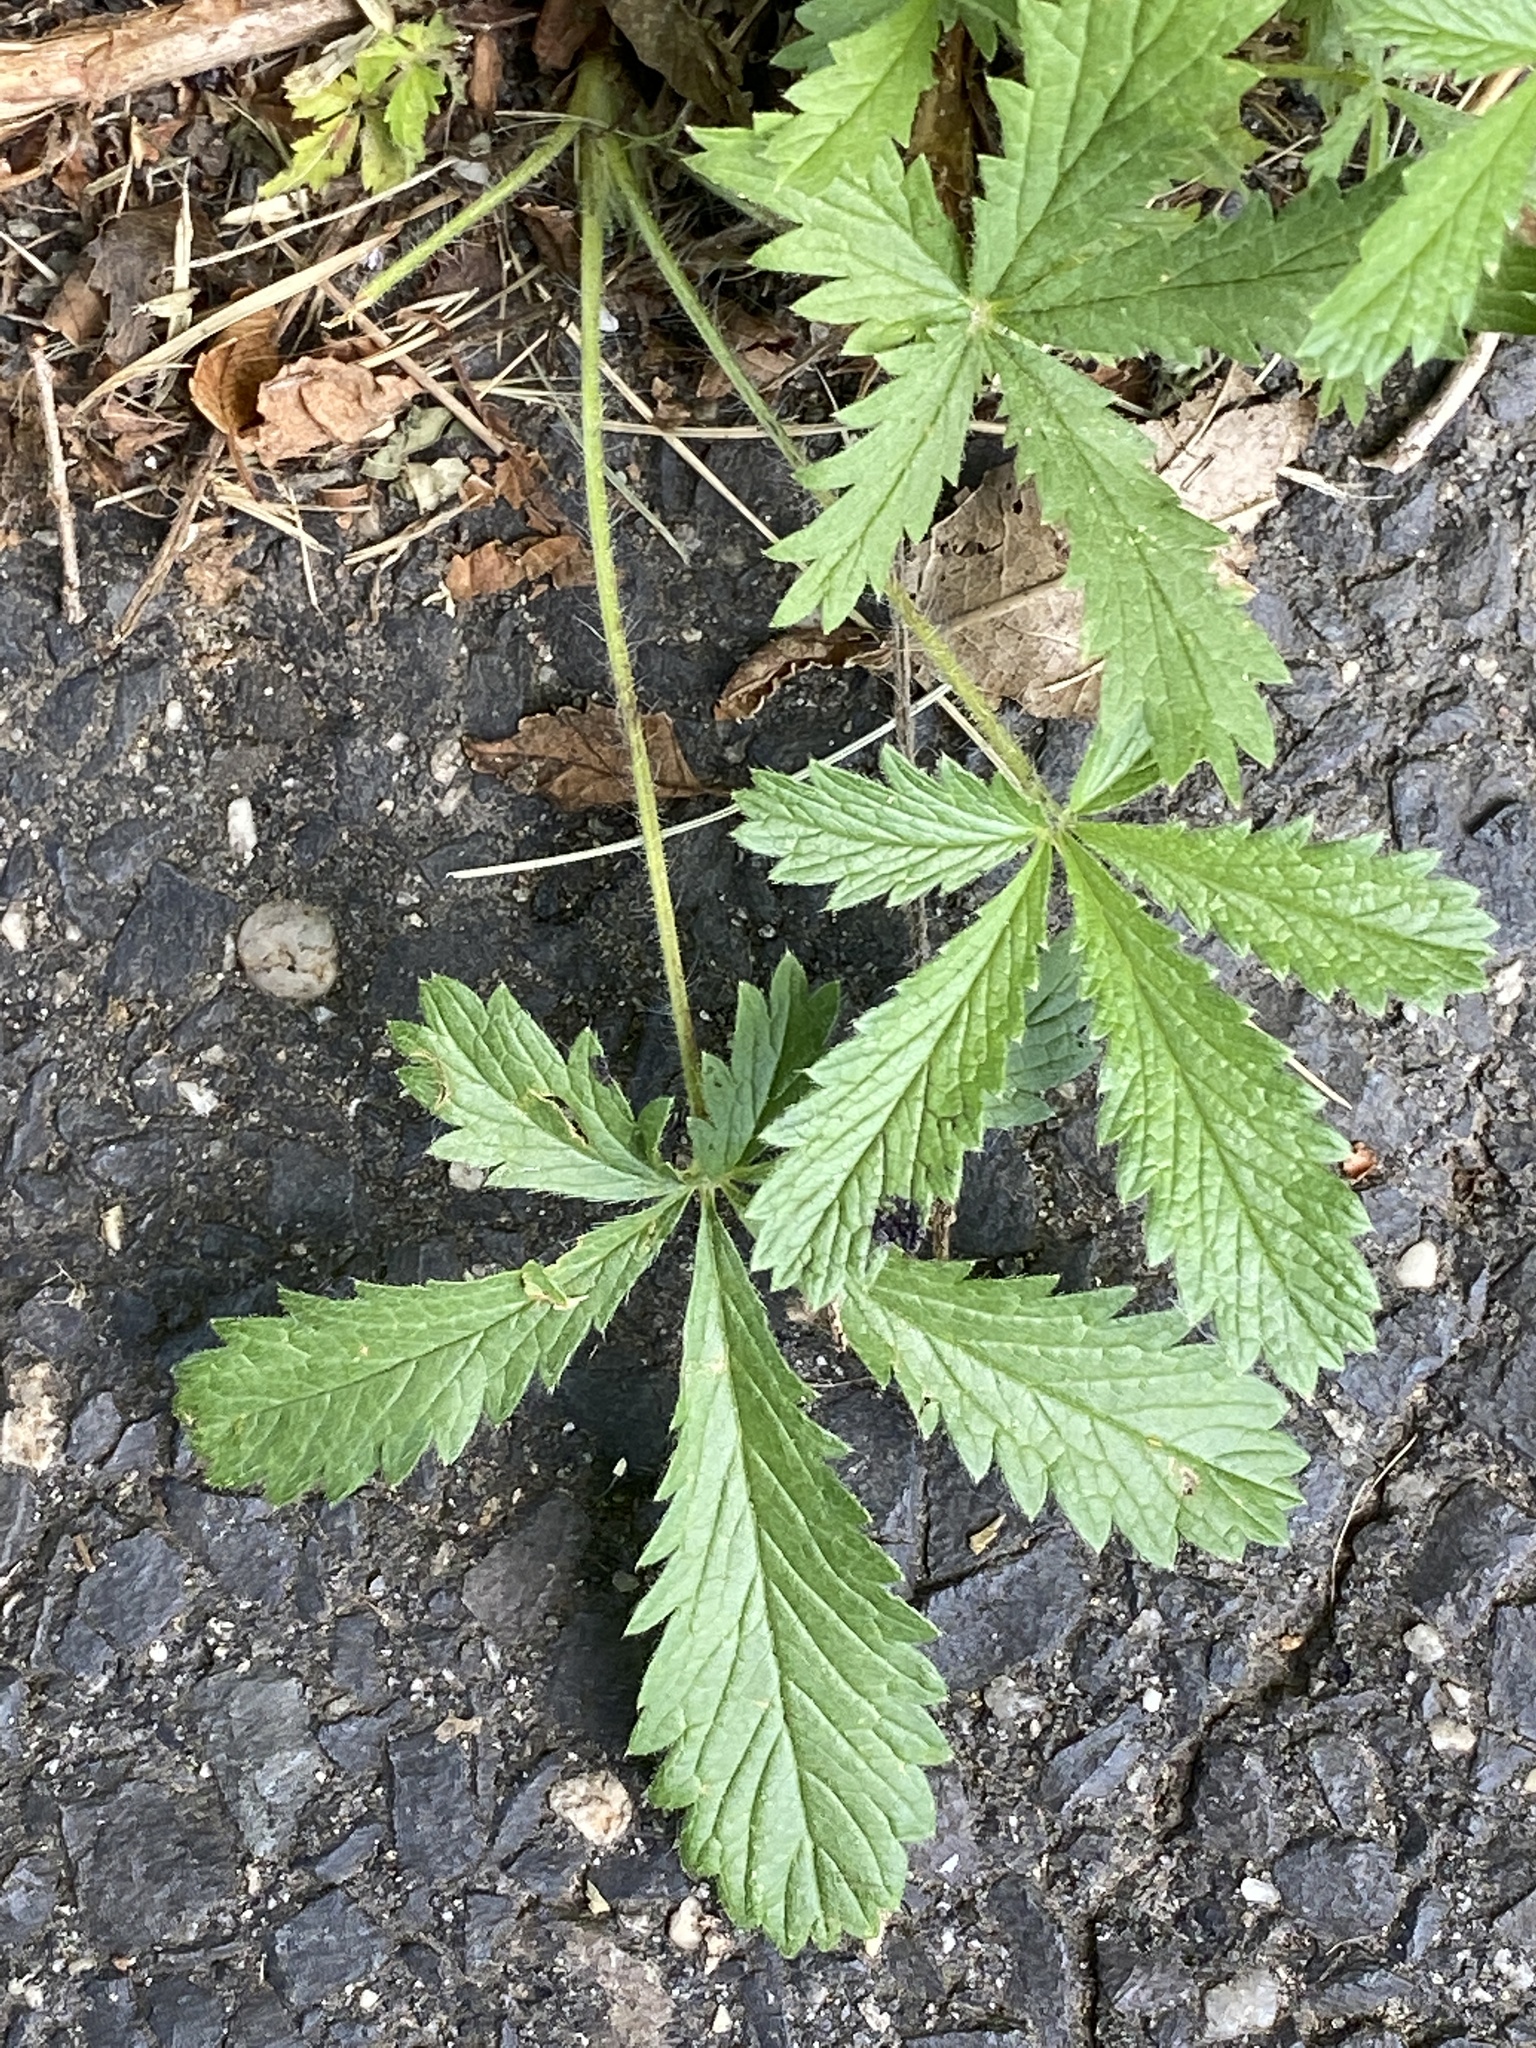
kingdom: Plantae
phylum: Tracheophyta
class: Magnoliopsida
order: Rosales
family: Rosaceae
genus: Potentilla
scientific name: Potentilla recta
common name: Sulphur cinquefoil
